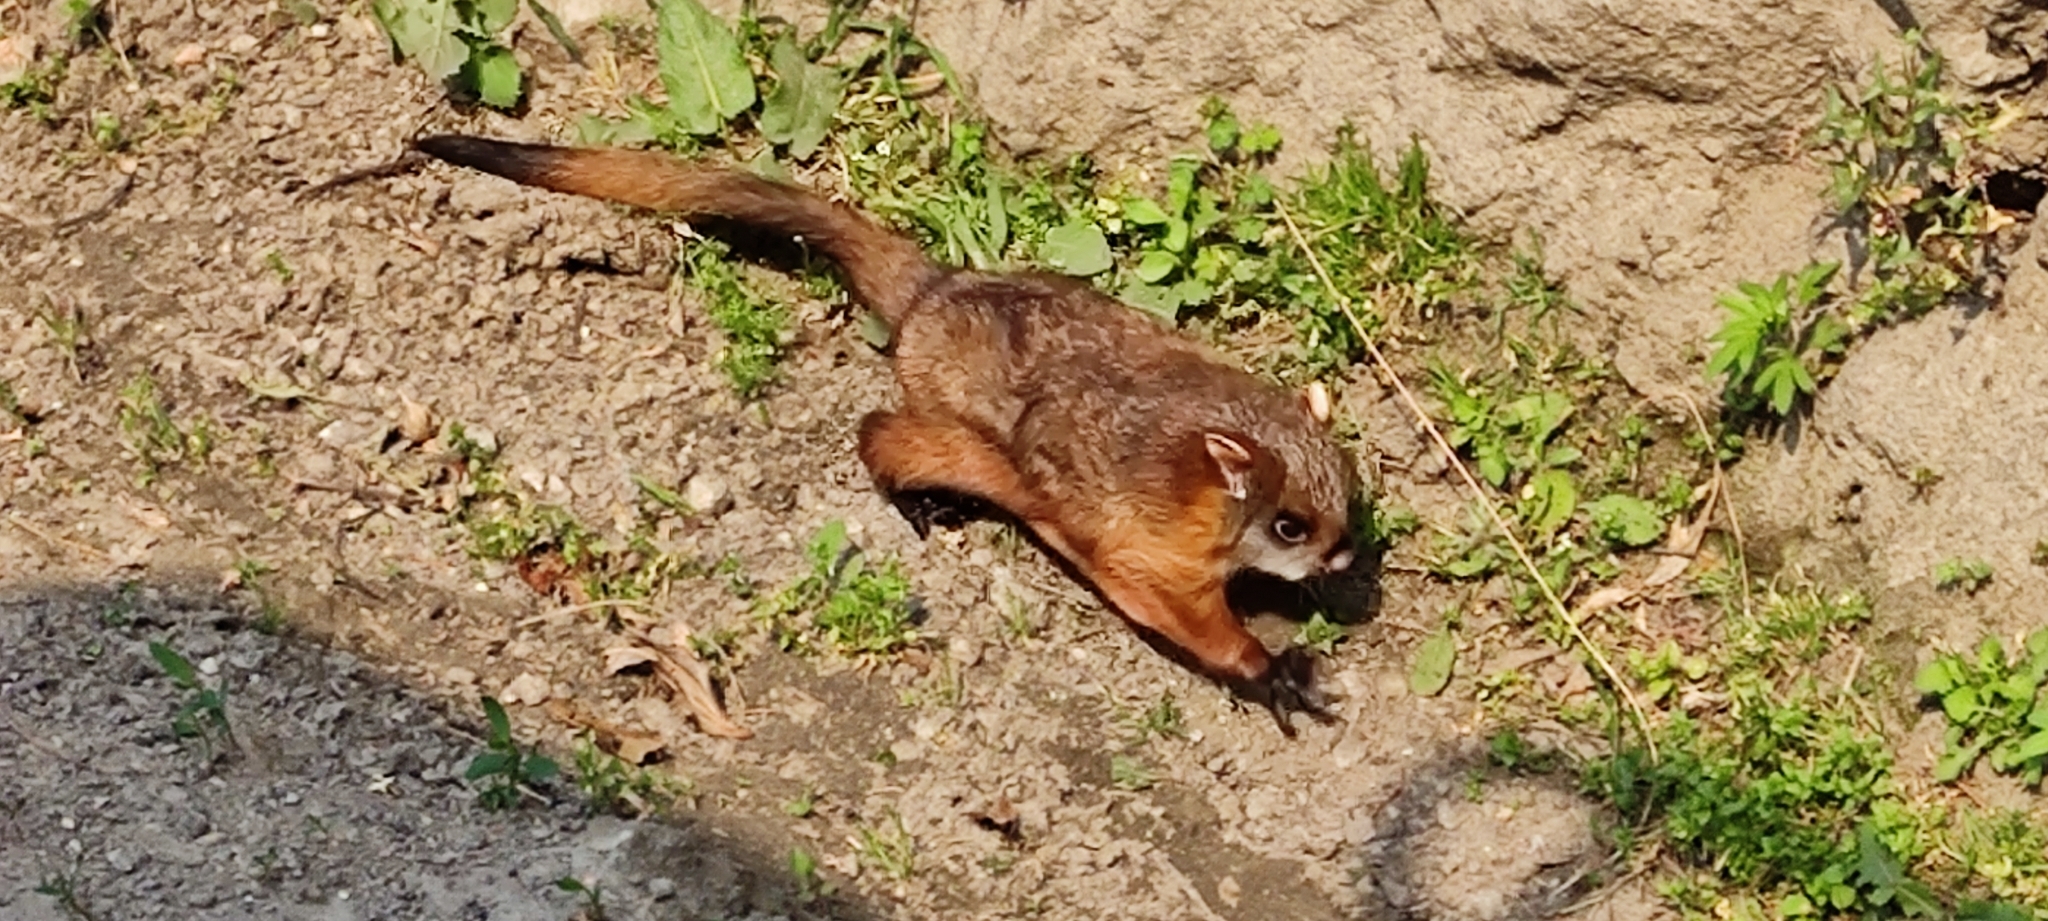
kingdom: Animalia
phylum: Chordata
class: Mammalia
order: Rodentia
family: Sciuridae
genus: Petaurista
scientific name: Petaurista petaurista
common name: Red giant flying squirrel
